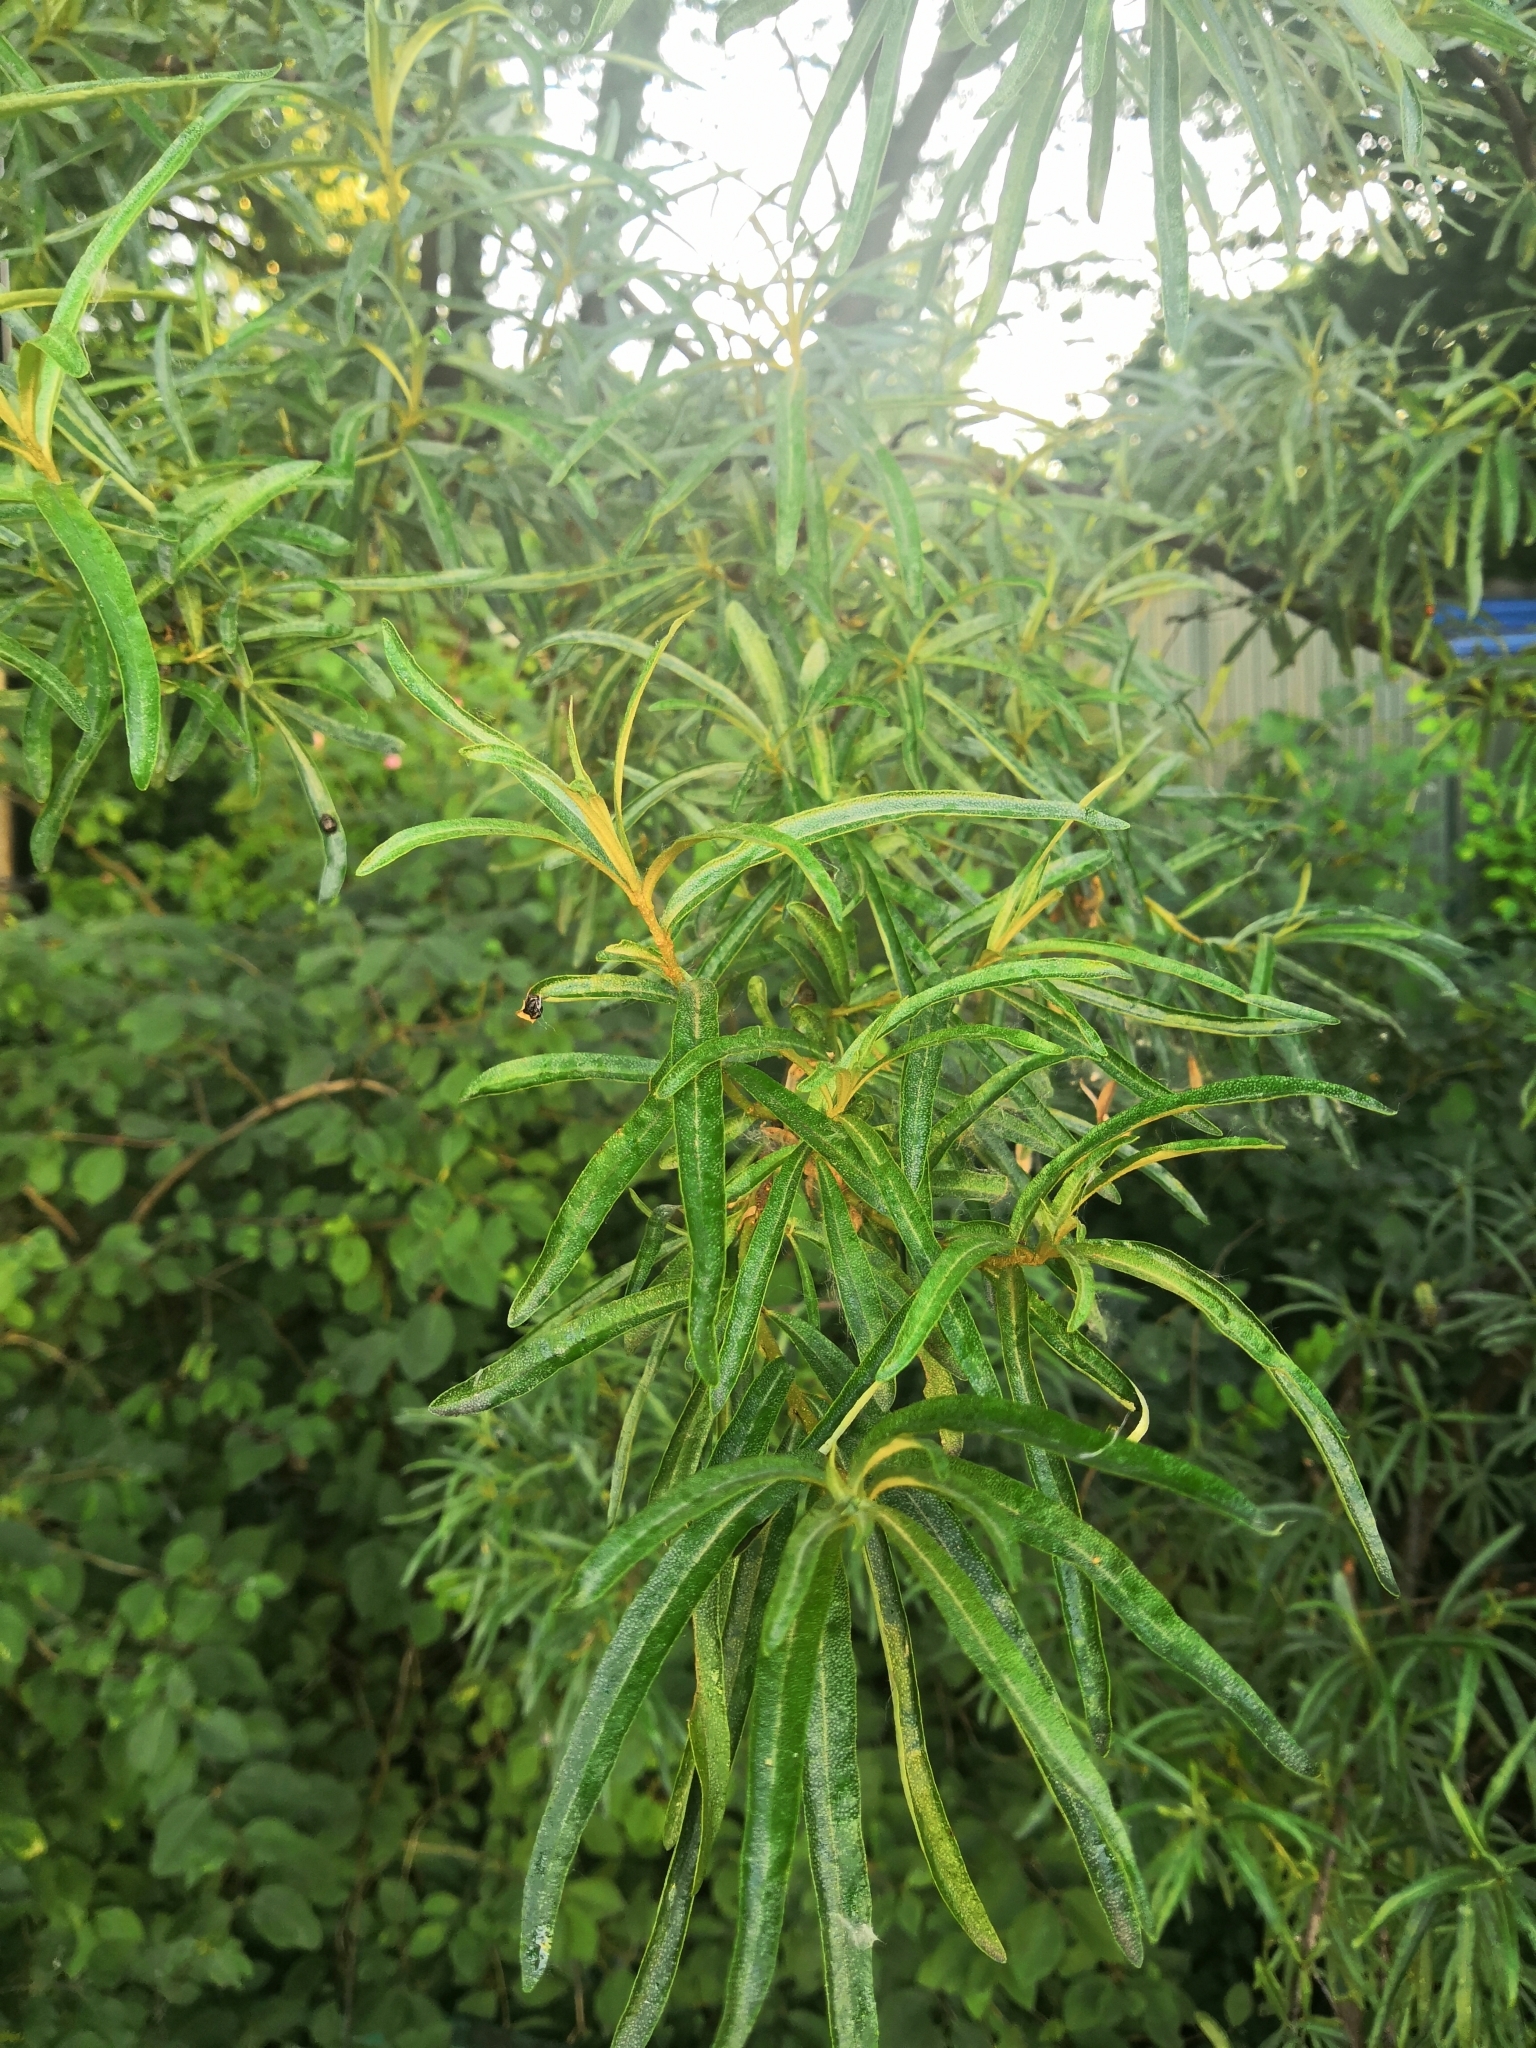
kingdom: Plantae
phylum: Tracheophyta
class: Magnoliopsida
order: Rosales
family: Elaeagnaceae
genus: Hippophae
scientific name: Hippophae rhamnoides
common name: Sea-buckthorn
